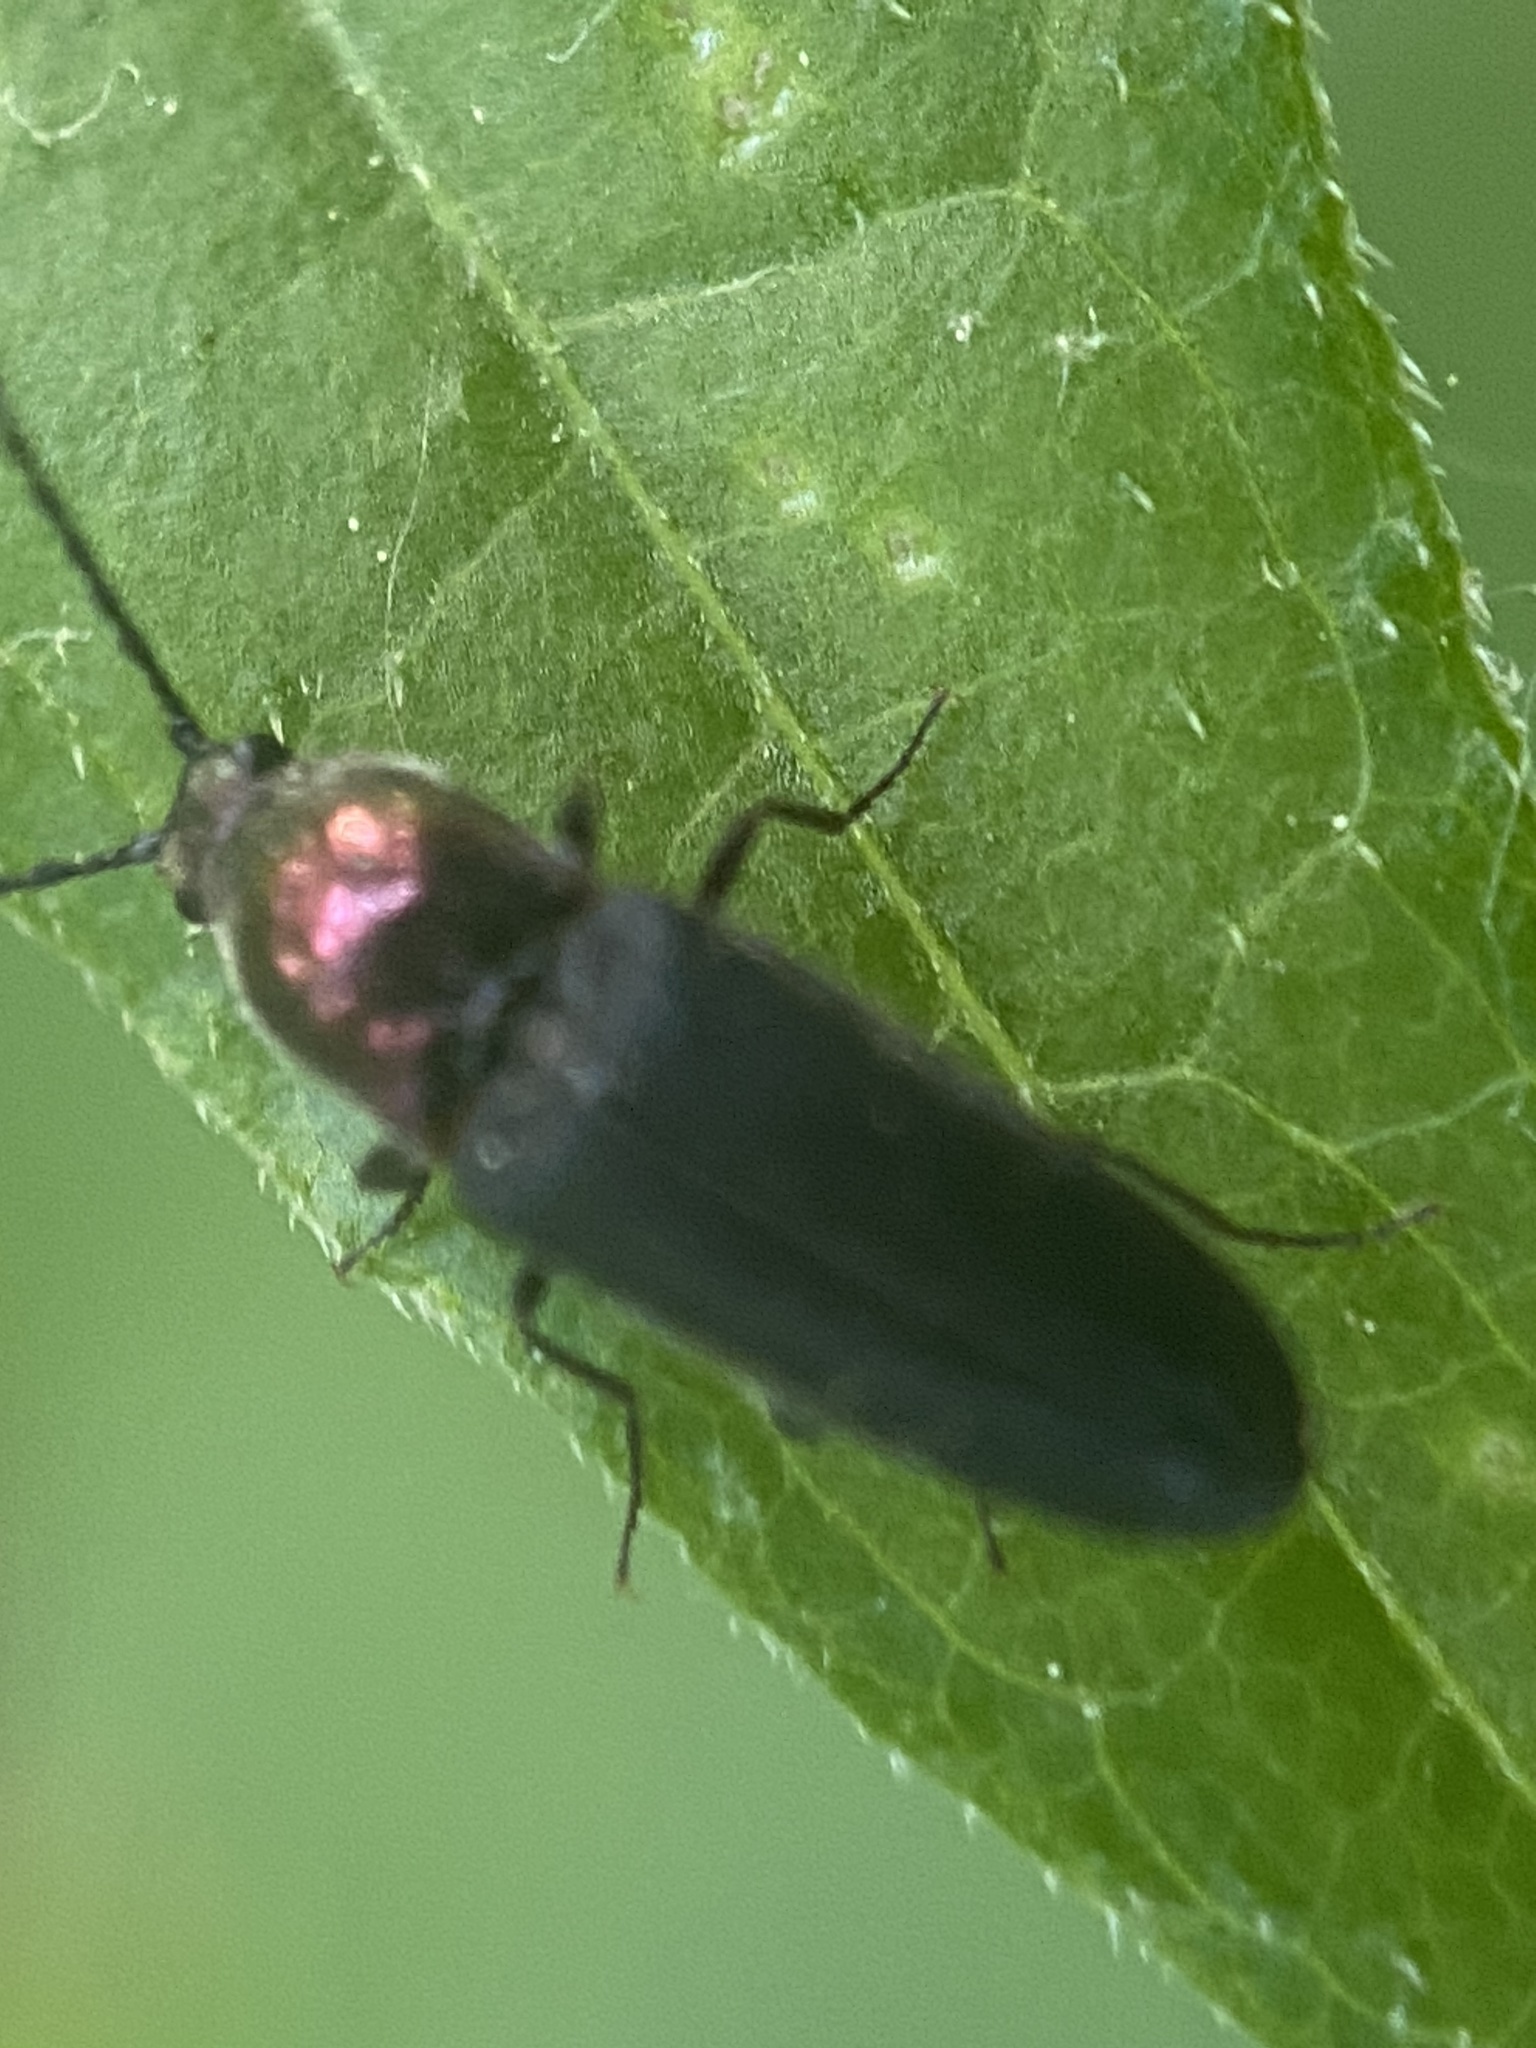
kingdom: Animalia
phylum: Arthropoda
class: Insecta
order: Coleoptera
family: Elateridae
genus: Limonius
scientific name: Limonius aurifer
